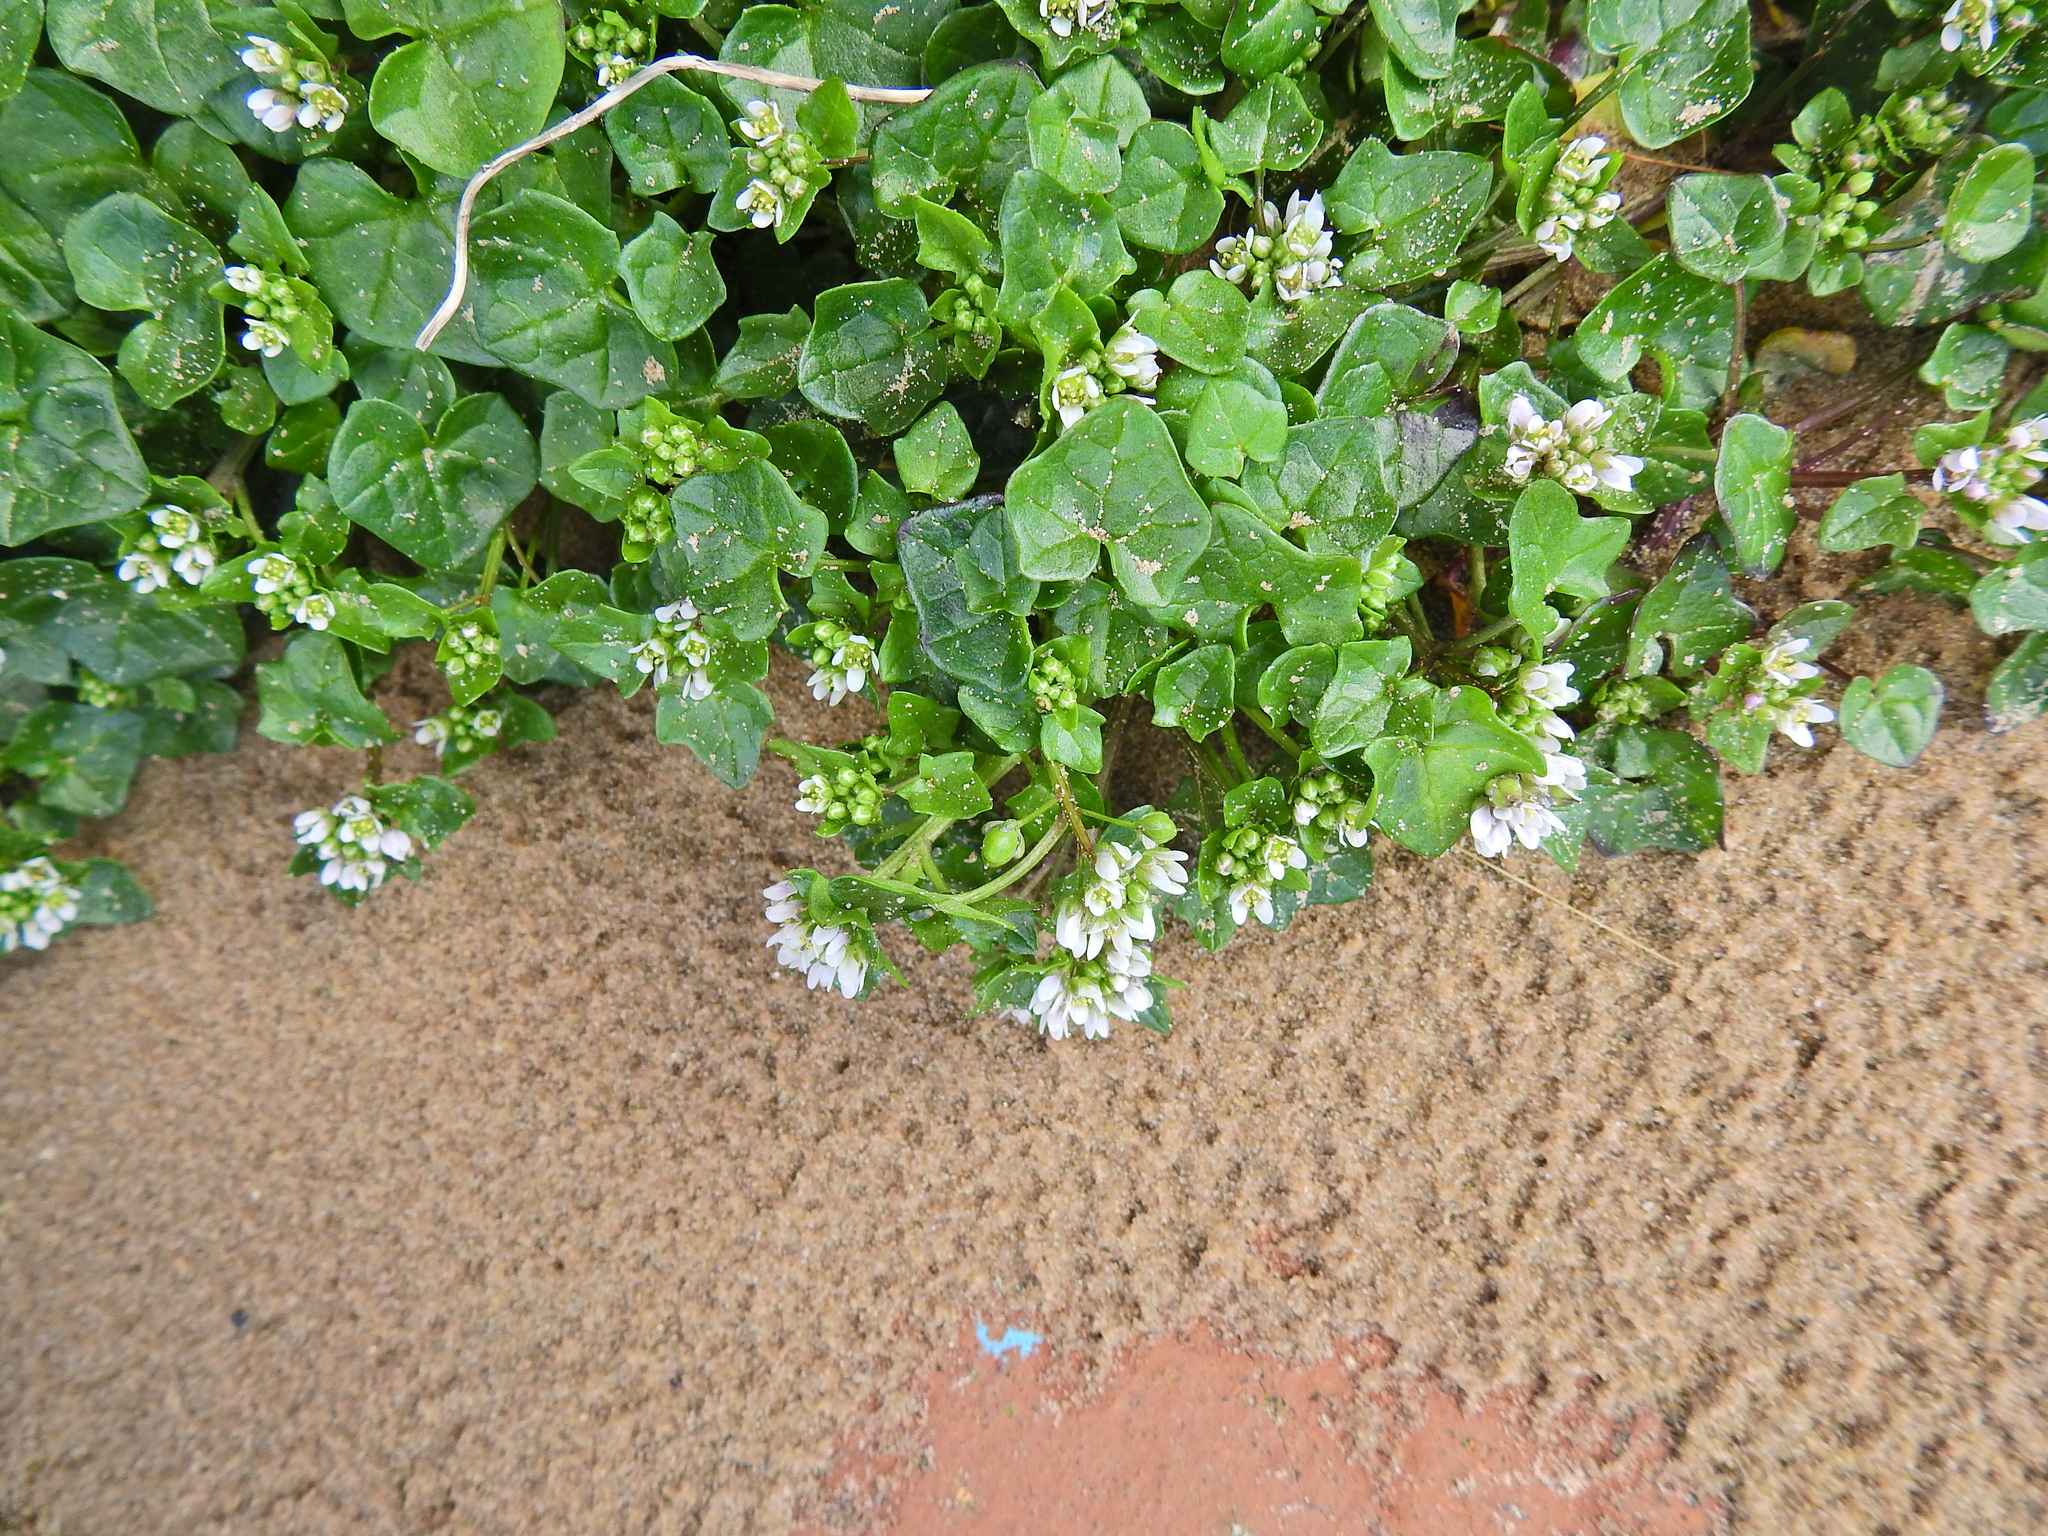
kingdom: Plantae
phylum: Tracheophyta
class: Magnoliopsida
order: Brassicales
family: Brassicaceae
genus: Cochlearia
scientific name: Cochlearia officinalis
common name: Scurvy-grass
